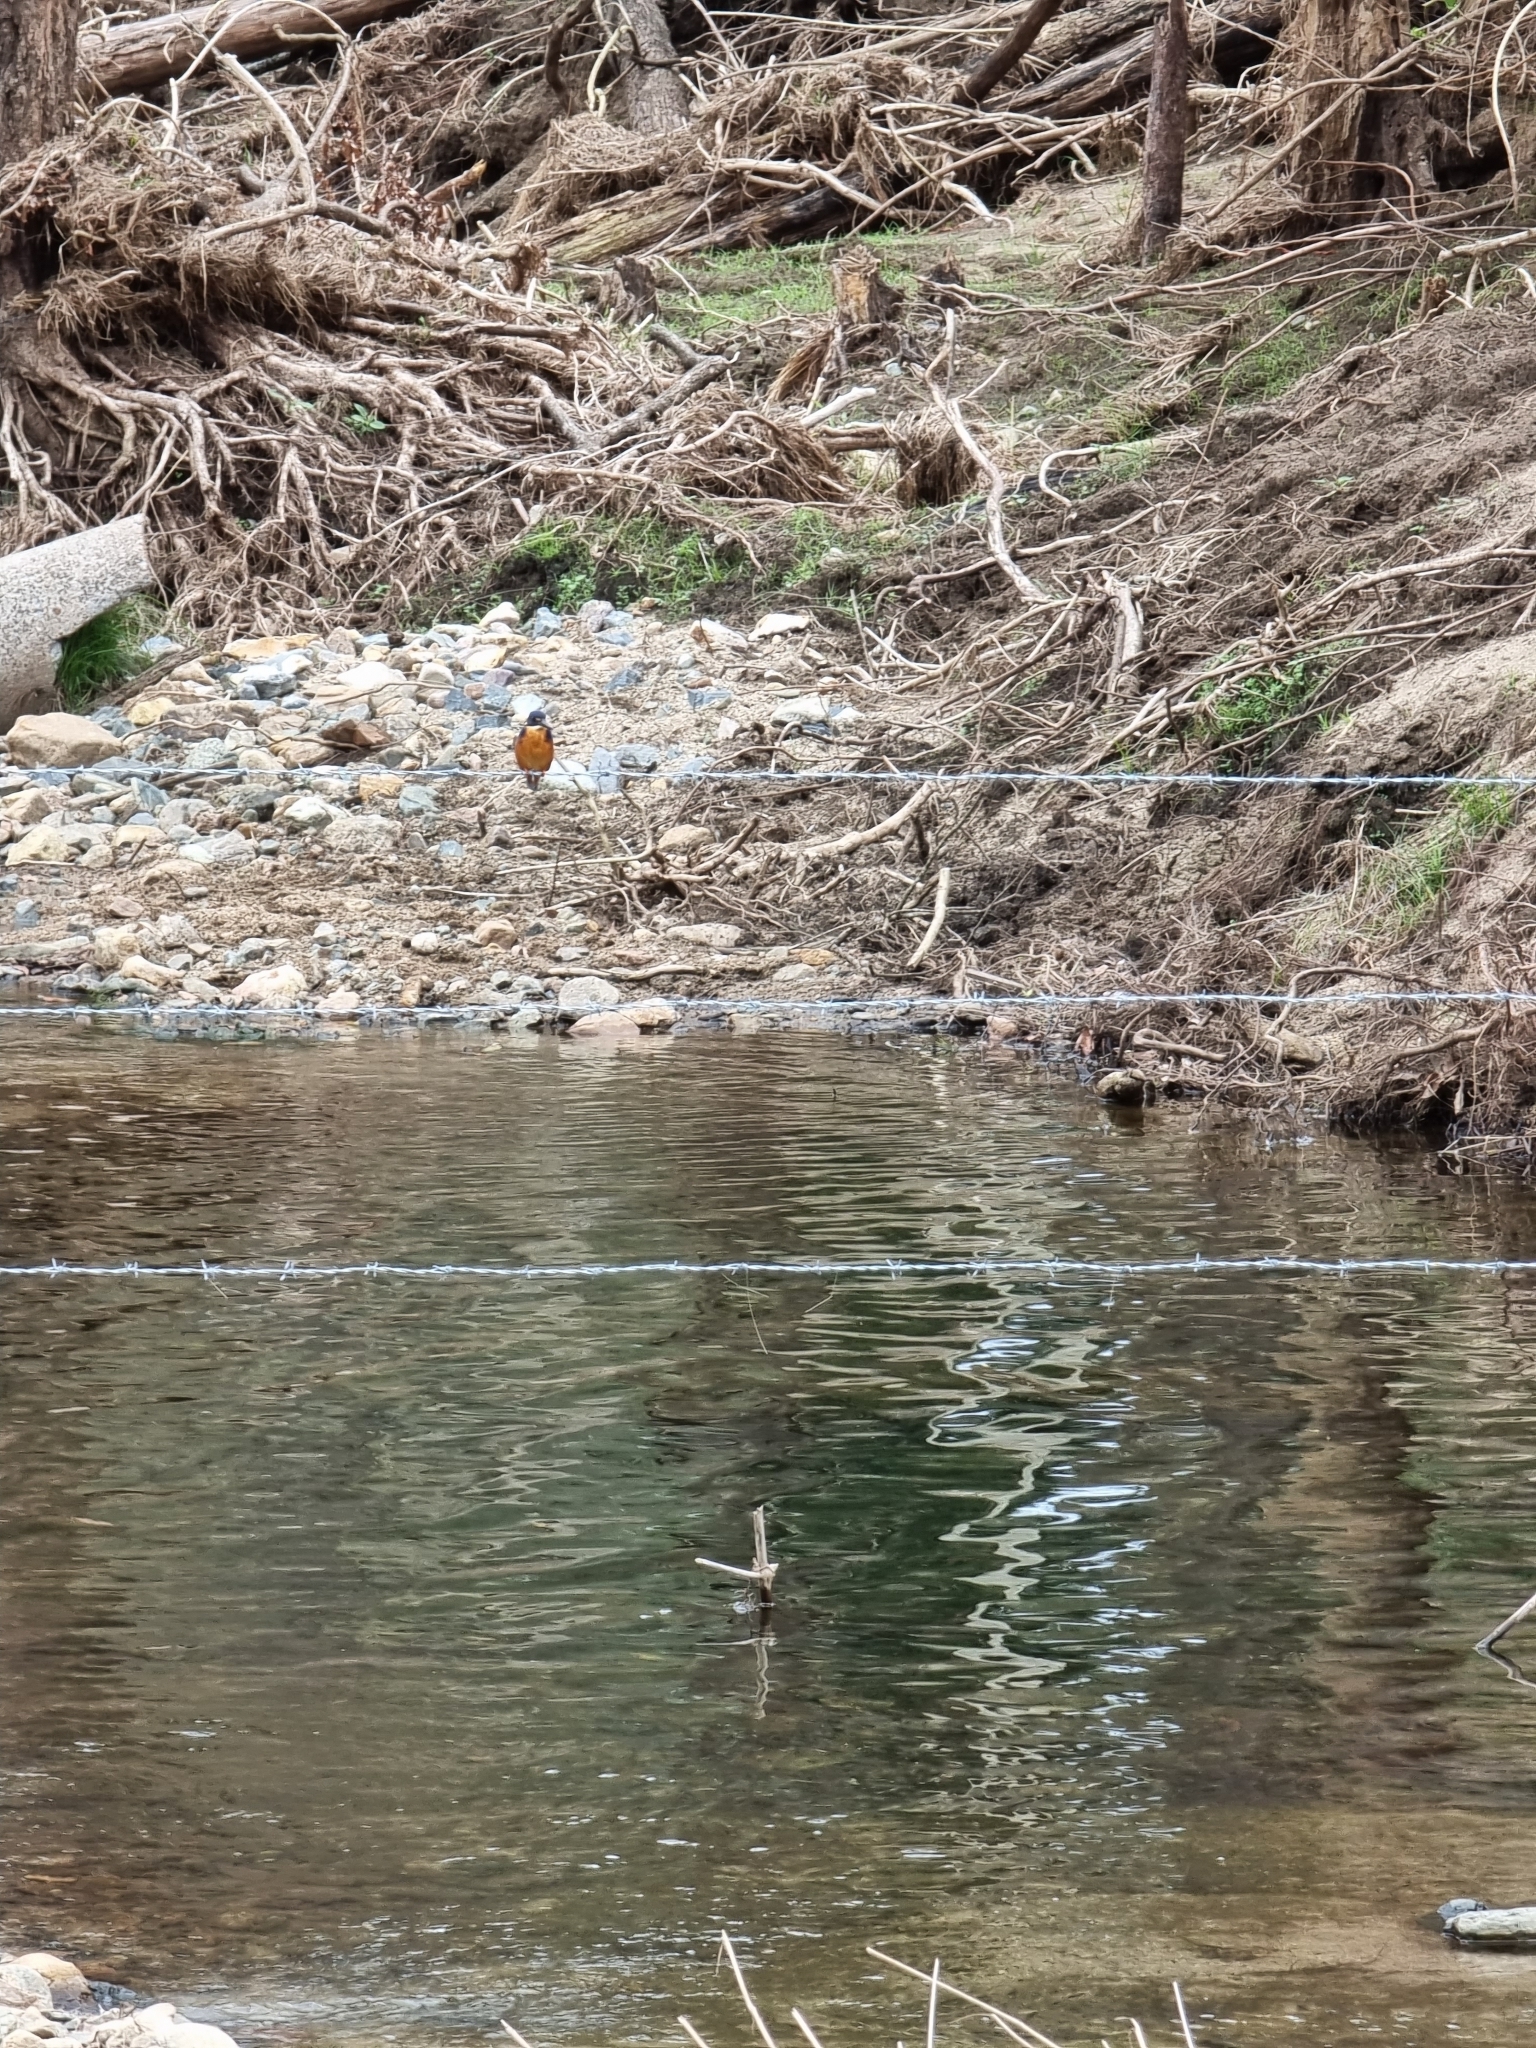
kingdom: Animalia
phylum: Chordata
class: Aves
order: Coraciiformes
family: Alcedinidae
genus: Ceyx
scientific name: Ceyx azureus
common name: Azure kingfisher
